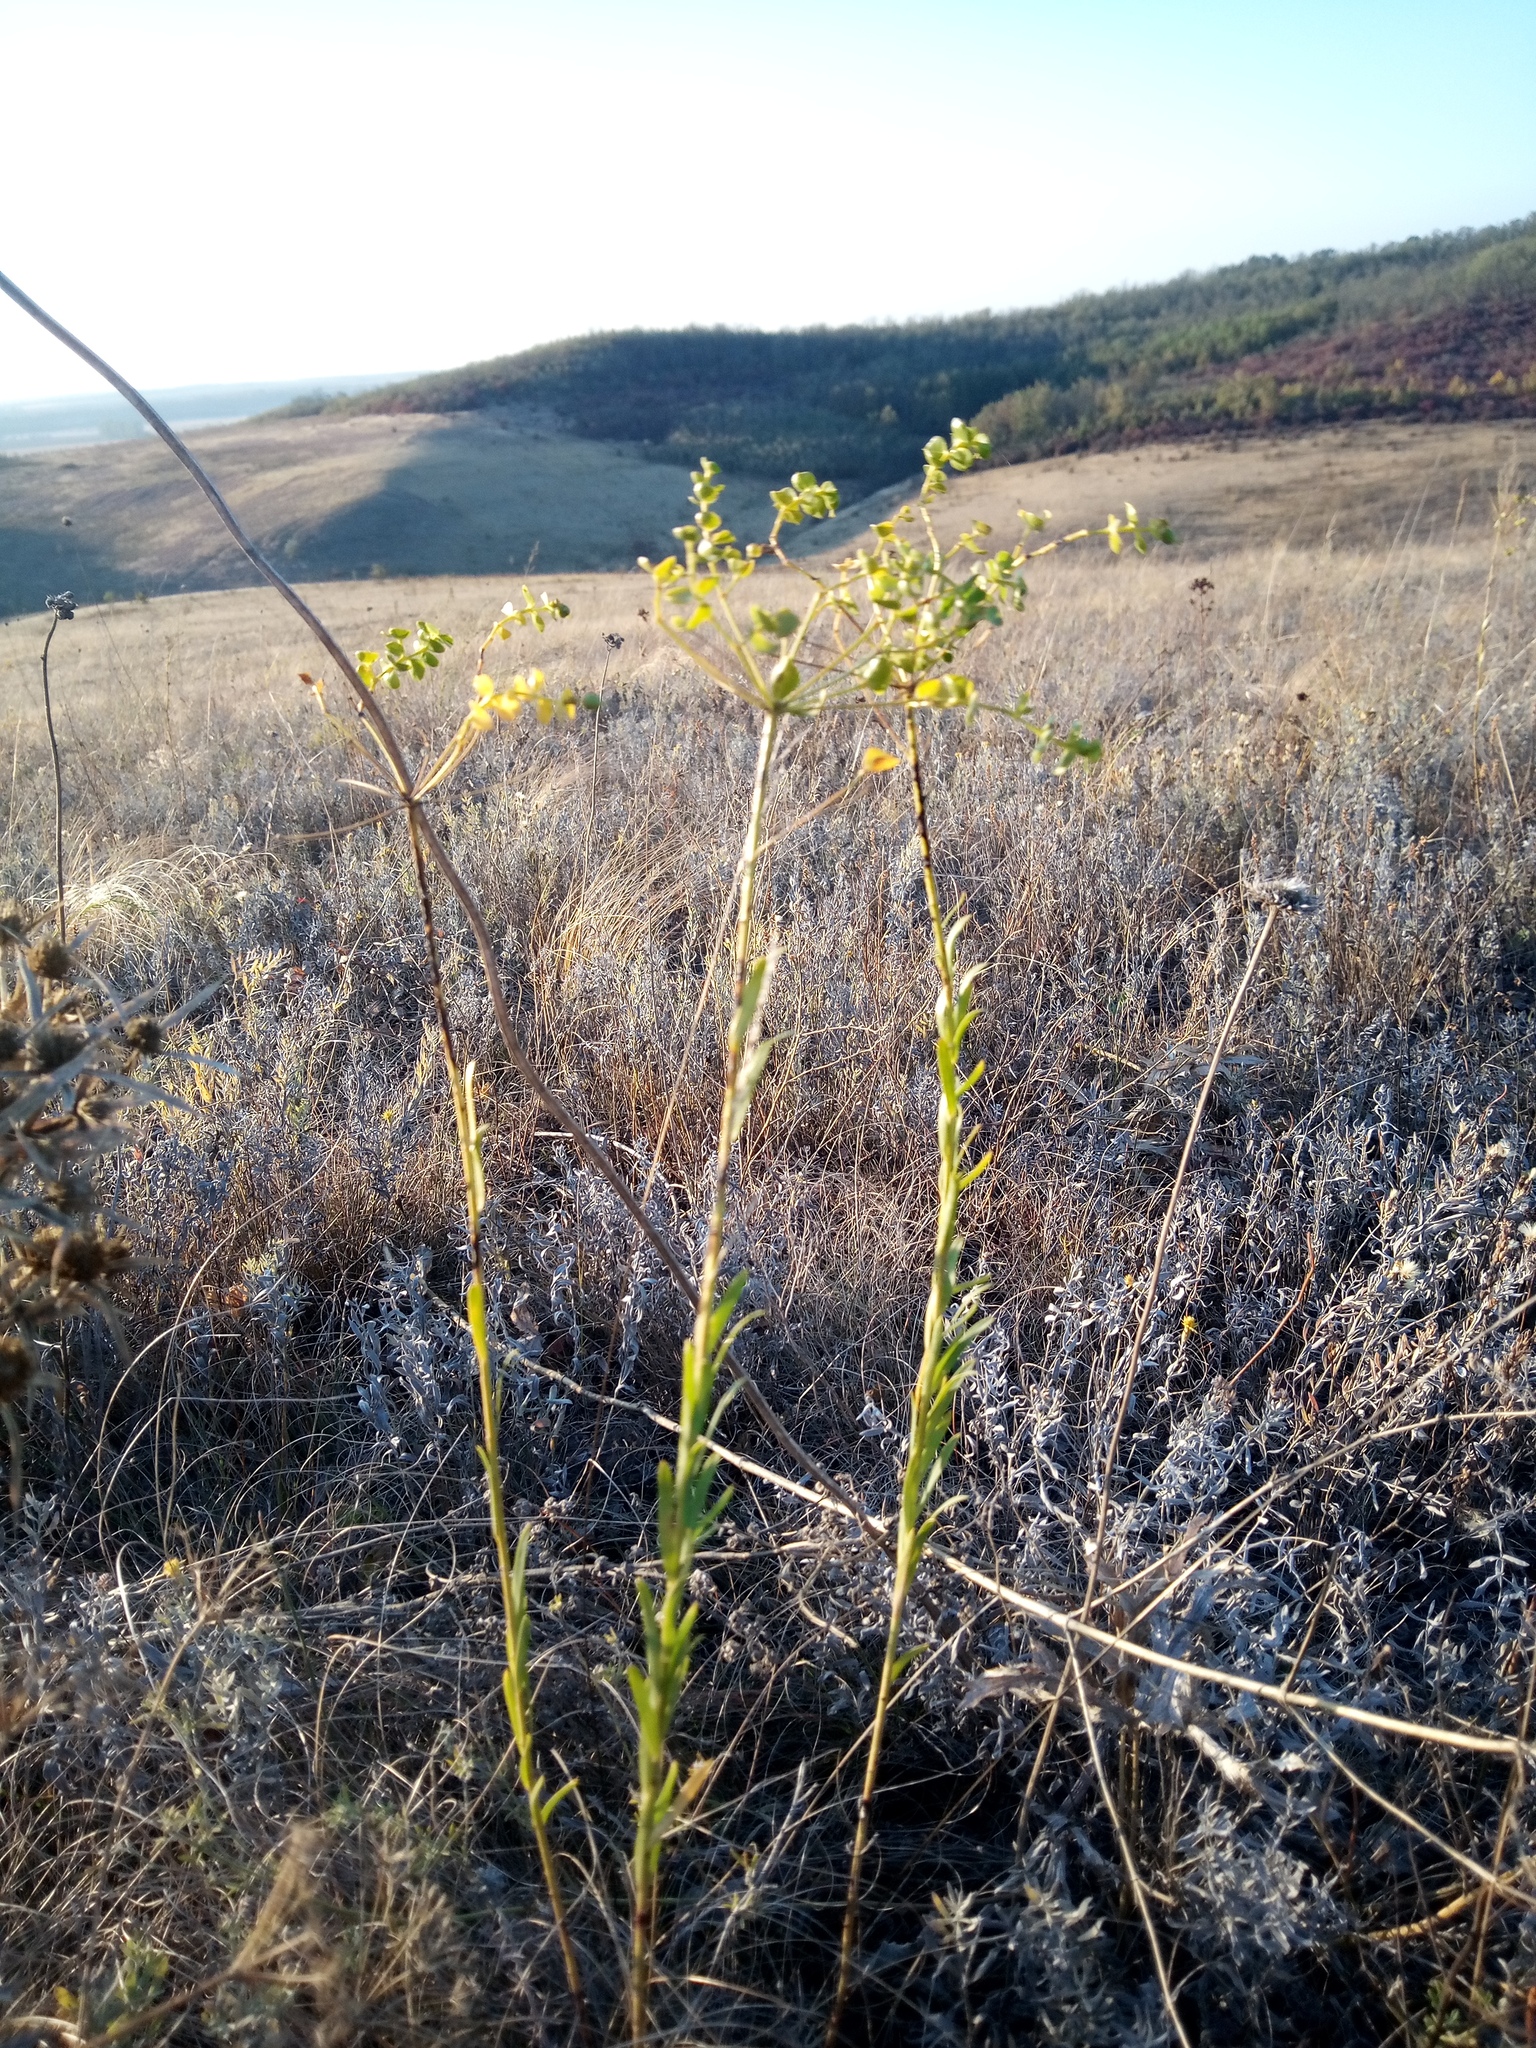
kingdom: Plantae
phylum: Tracheophyta
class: Magnoliopsida
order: Malpighiales
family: Euphorbiaceae
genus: Euphorbia
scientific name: Euphorbia seguieriana
